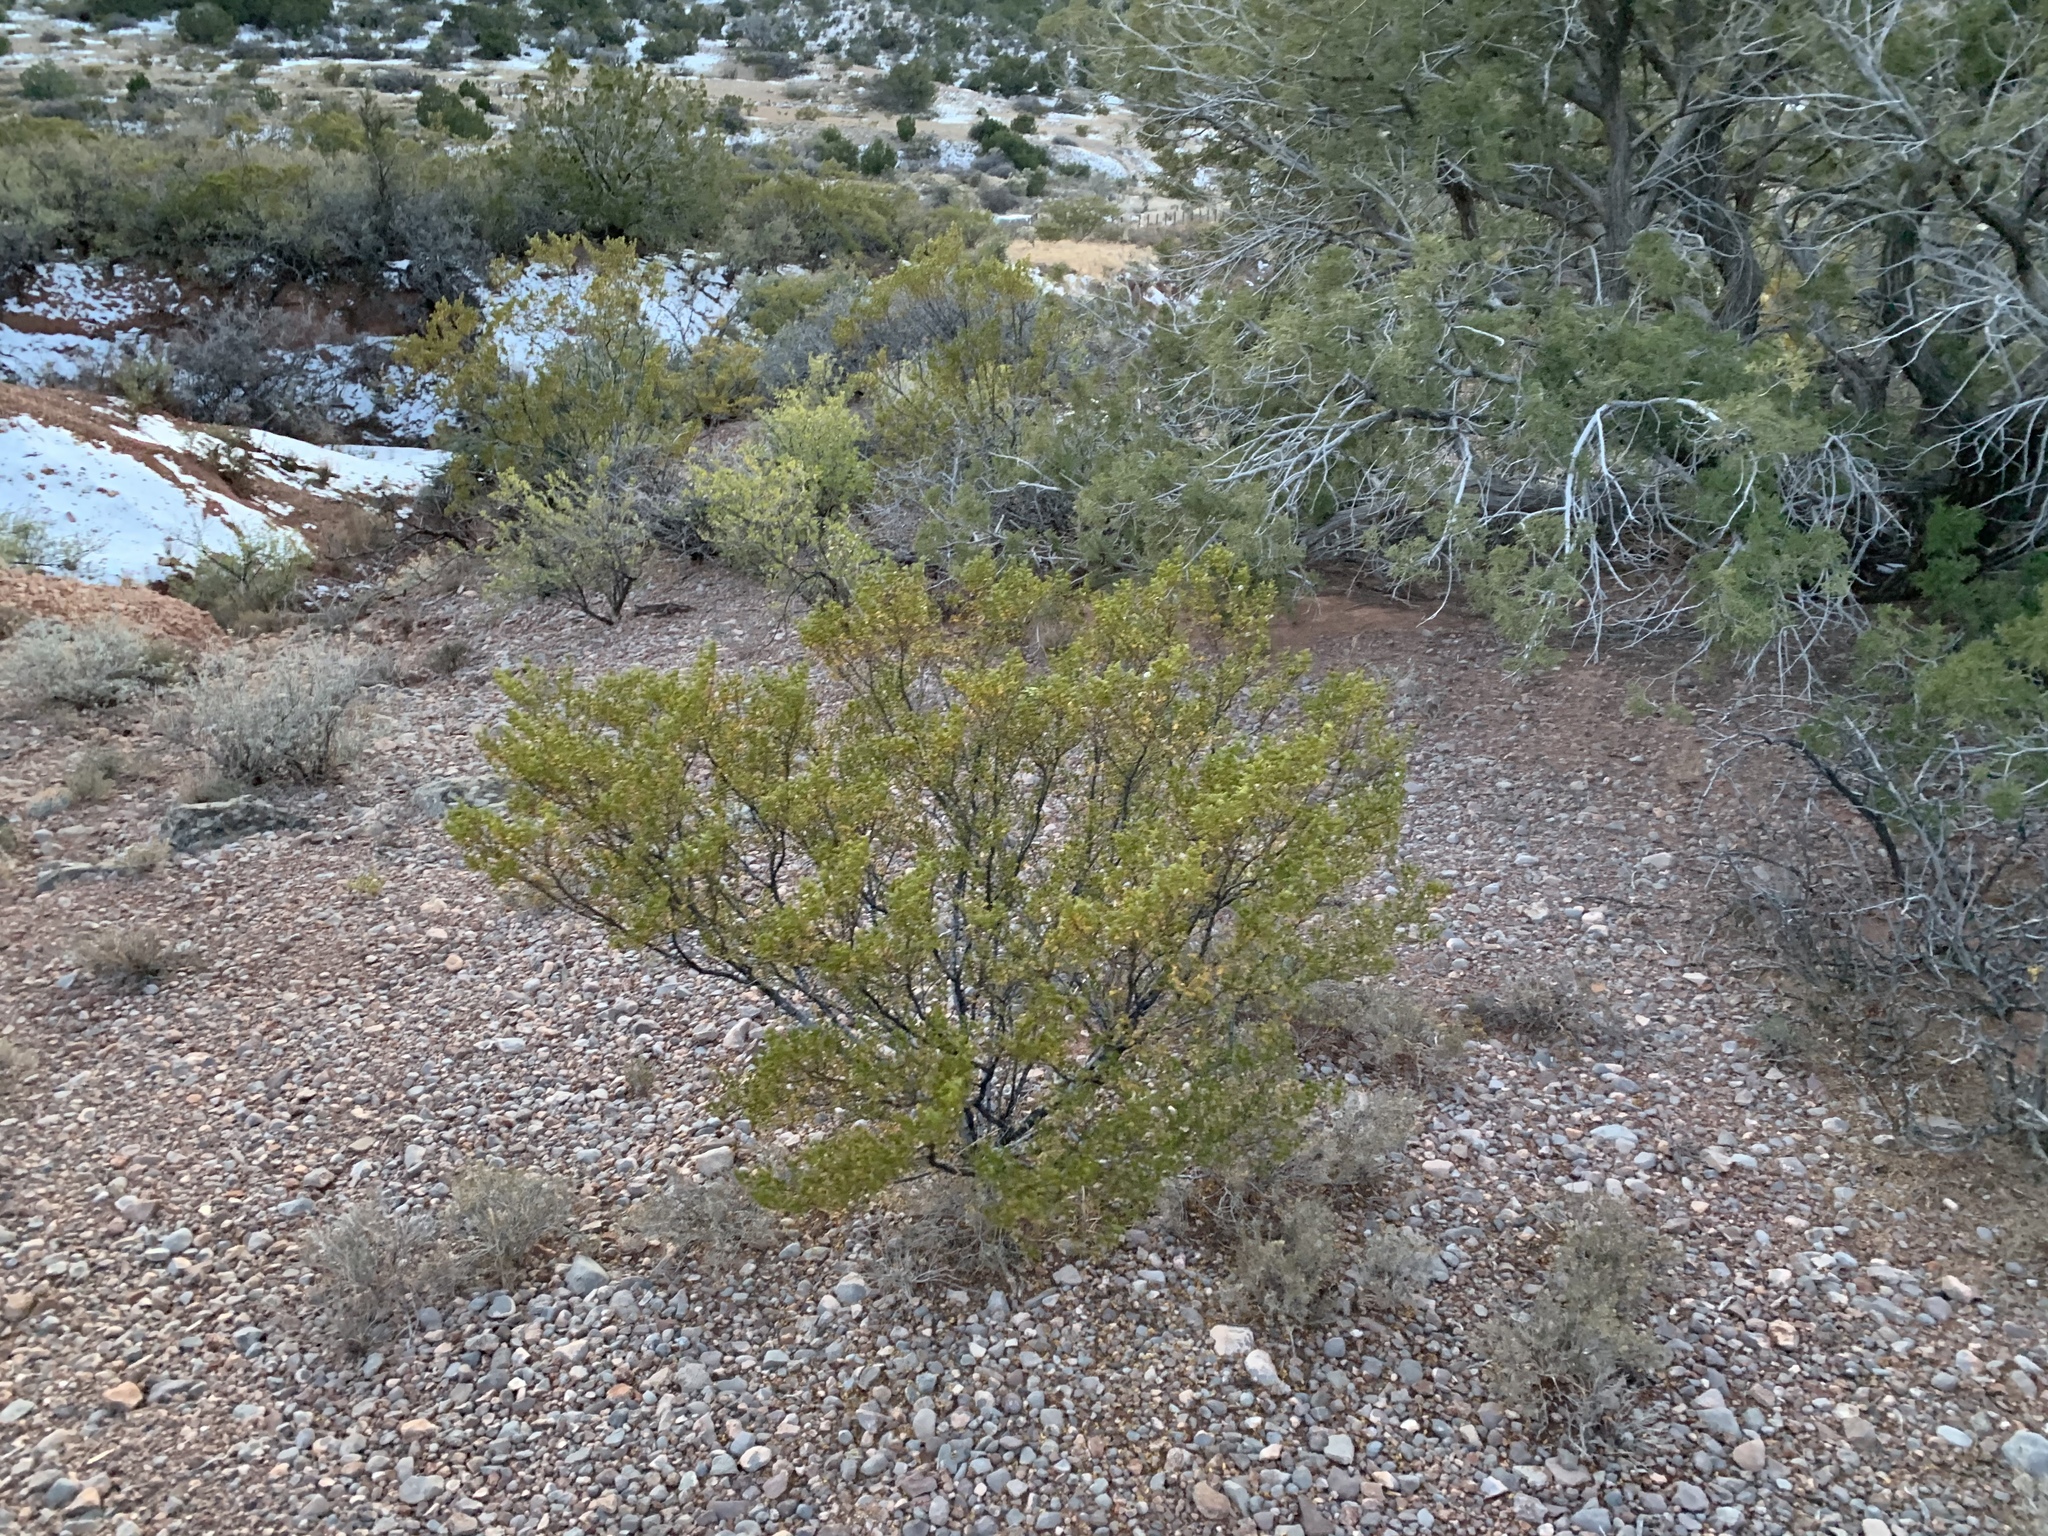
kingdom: Plantae
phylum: Tracheophyta
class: Magnoliopsida
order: Zygophyllales
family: Zygophyllaceae
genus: Larrea
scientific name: Larrea tridentata
